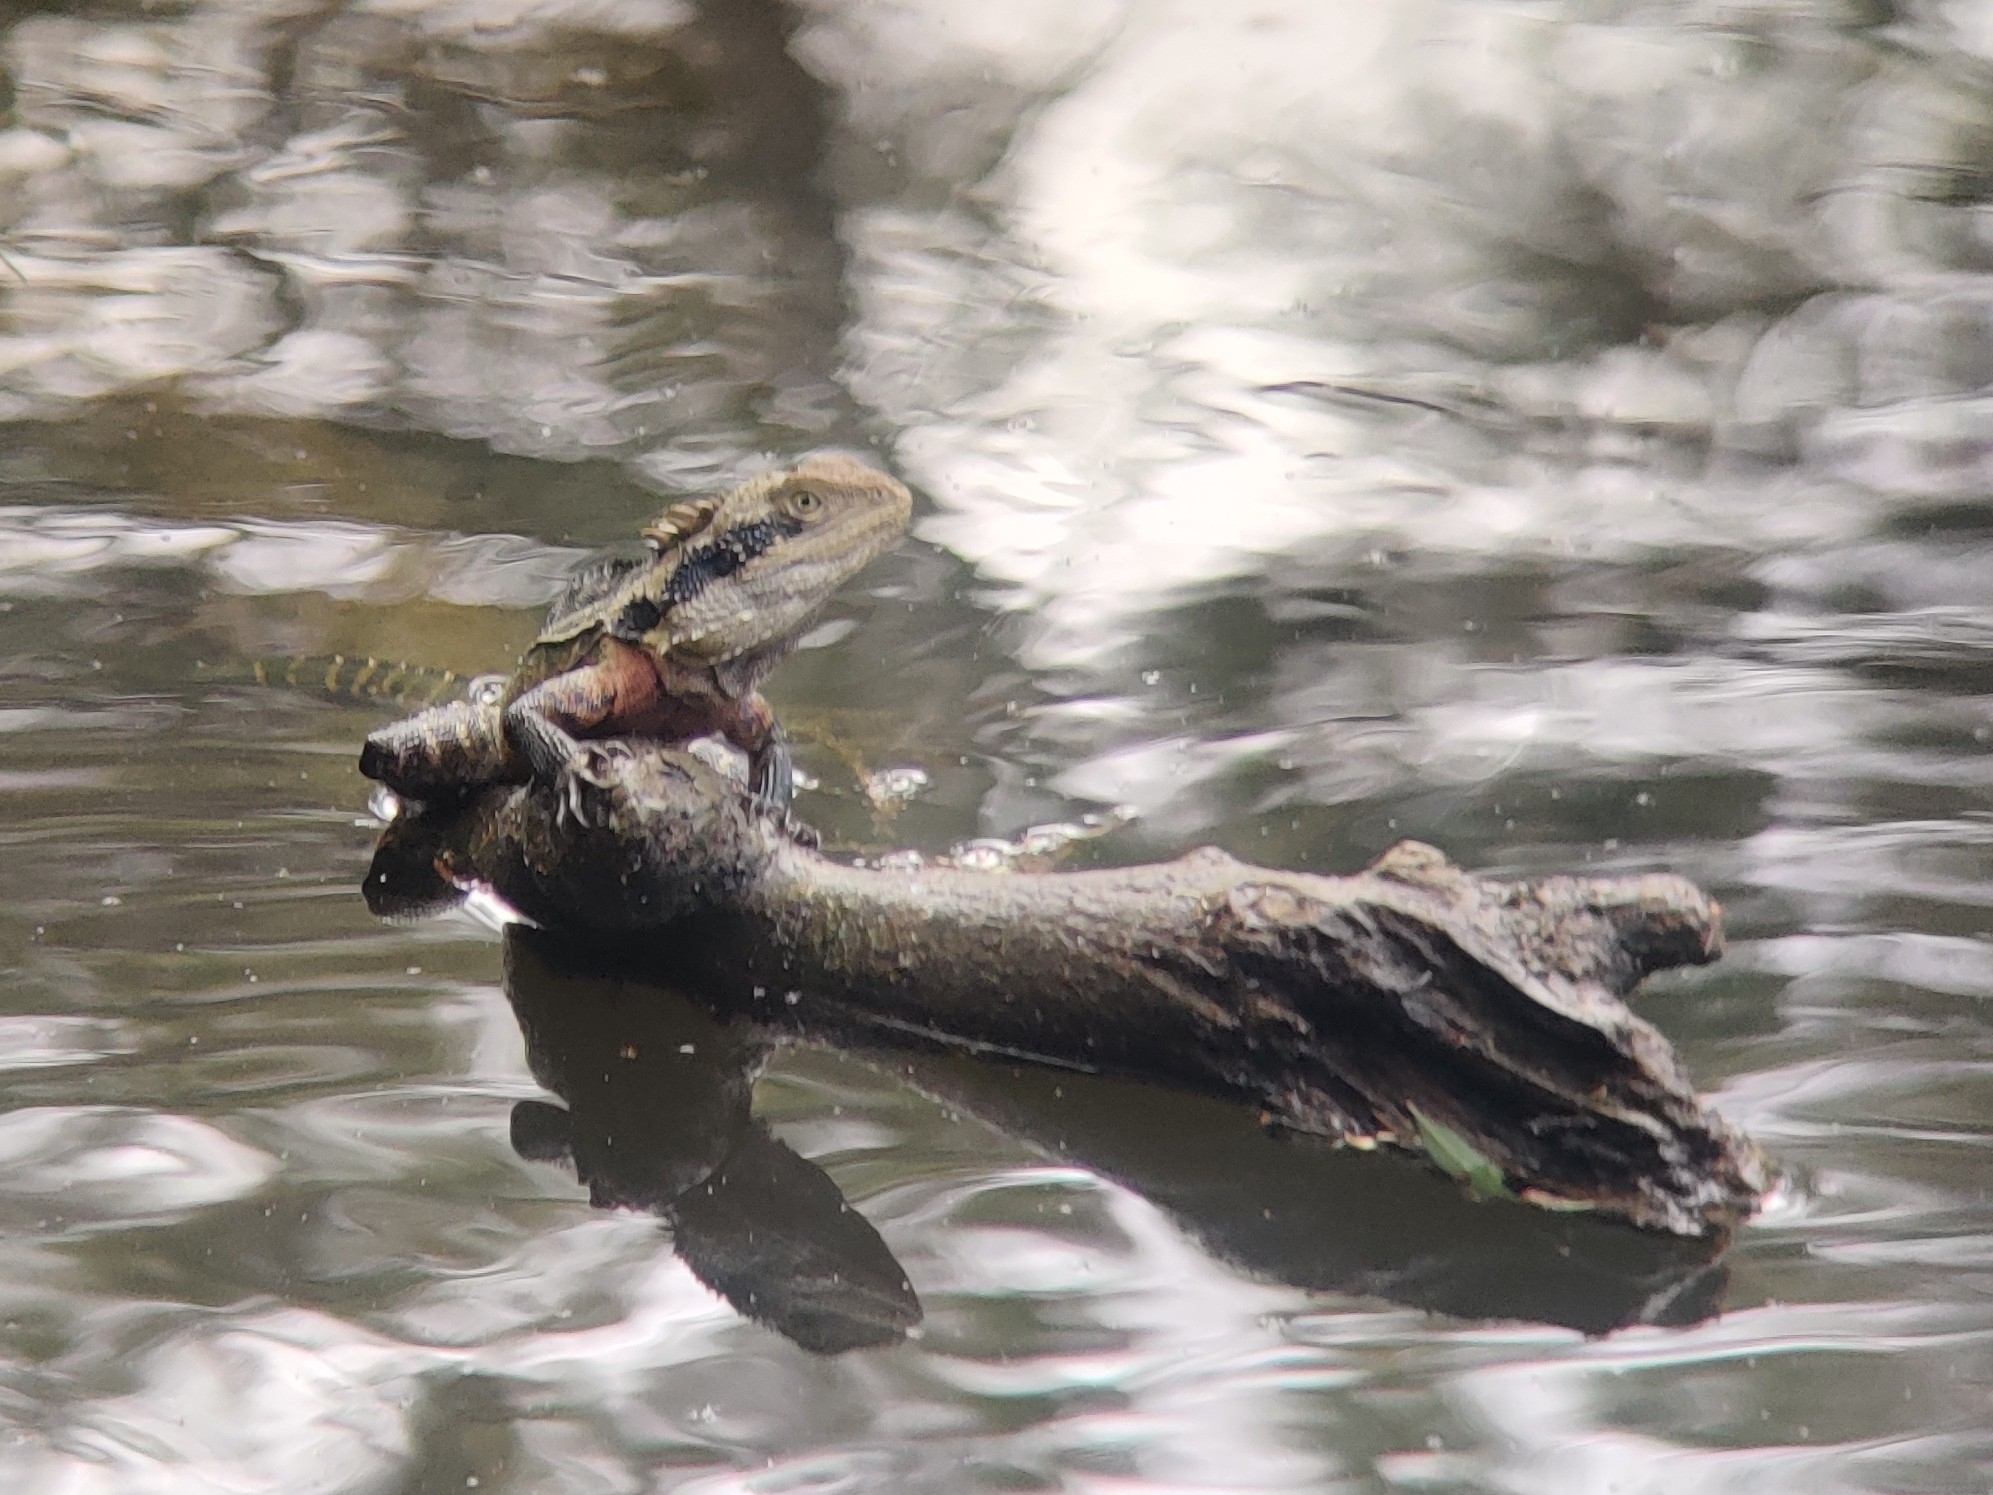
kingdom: Animalia
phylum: Chordata
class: Squamata
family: Agamidae
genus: Intellagama
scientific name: Intellagama lesueurii
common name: Eastern water dragon
